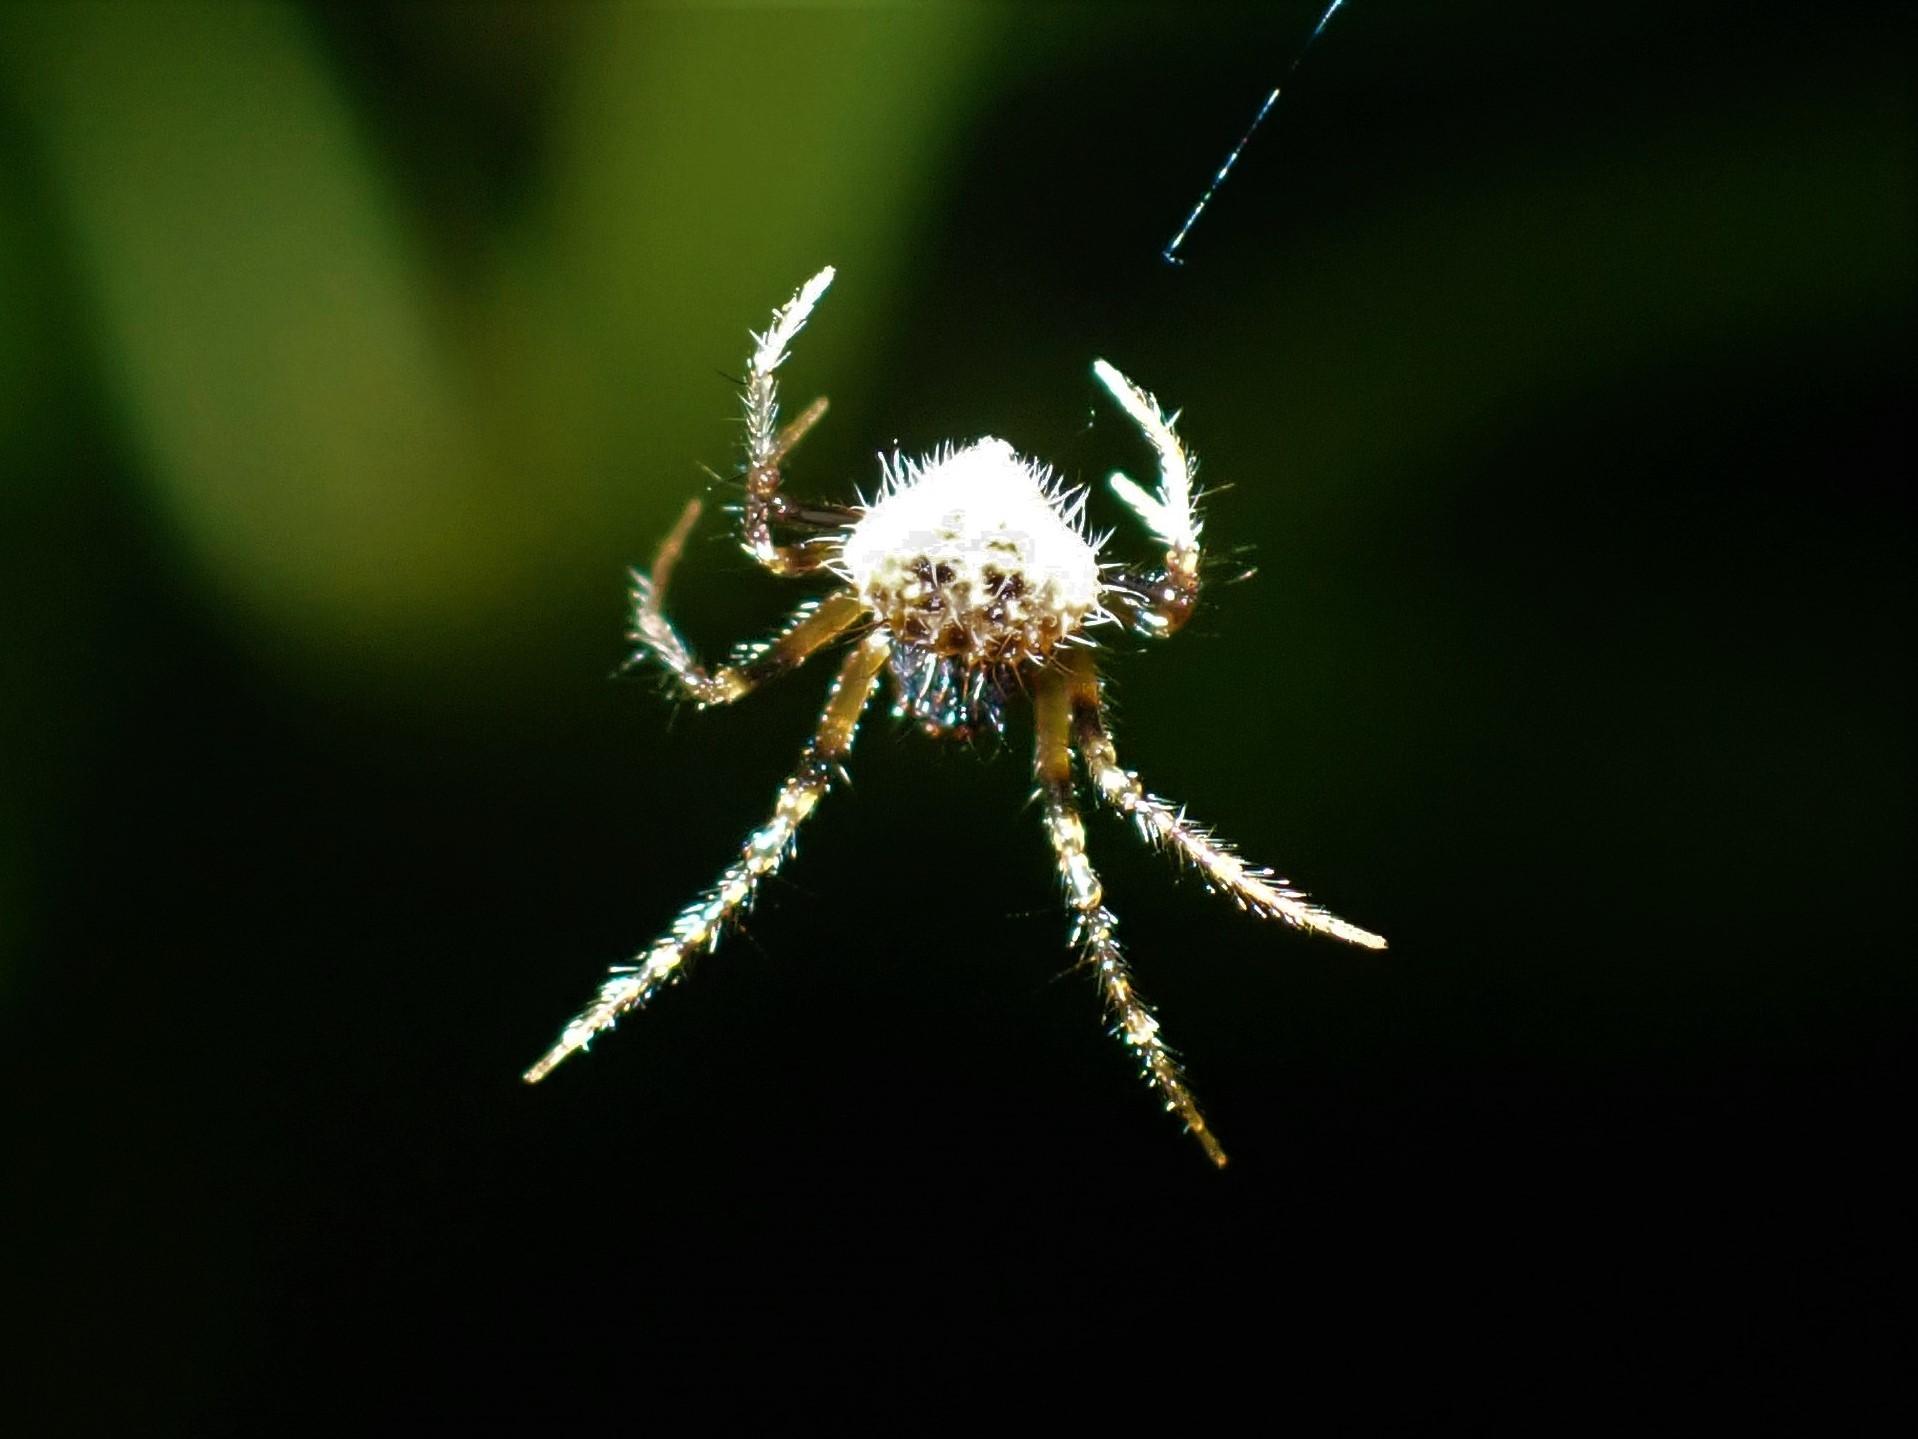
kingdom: Animalia
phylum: Arthropoda
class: Arachnida
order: Araneae
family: Araneidae
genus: Poecilopachys
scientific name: Poecilopachys australasia
